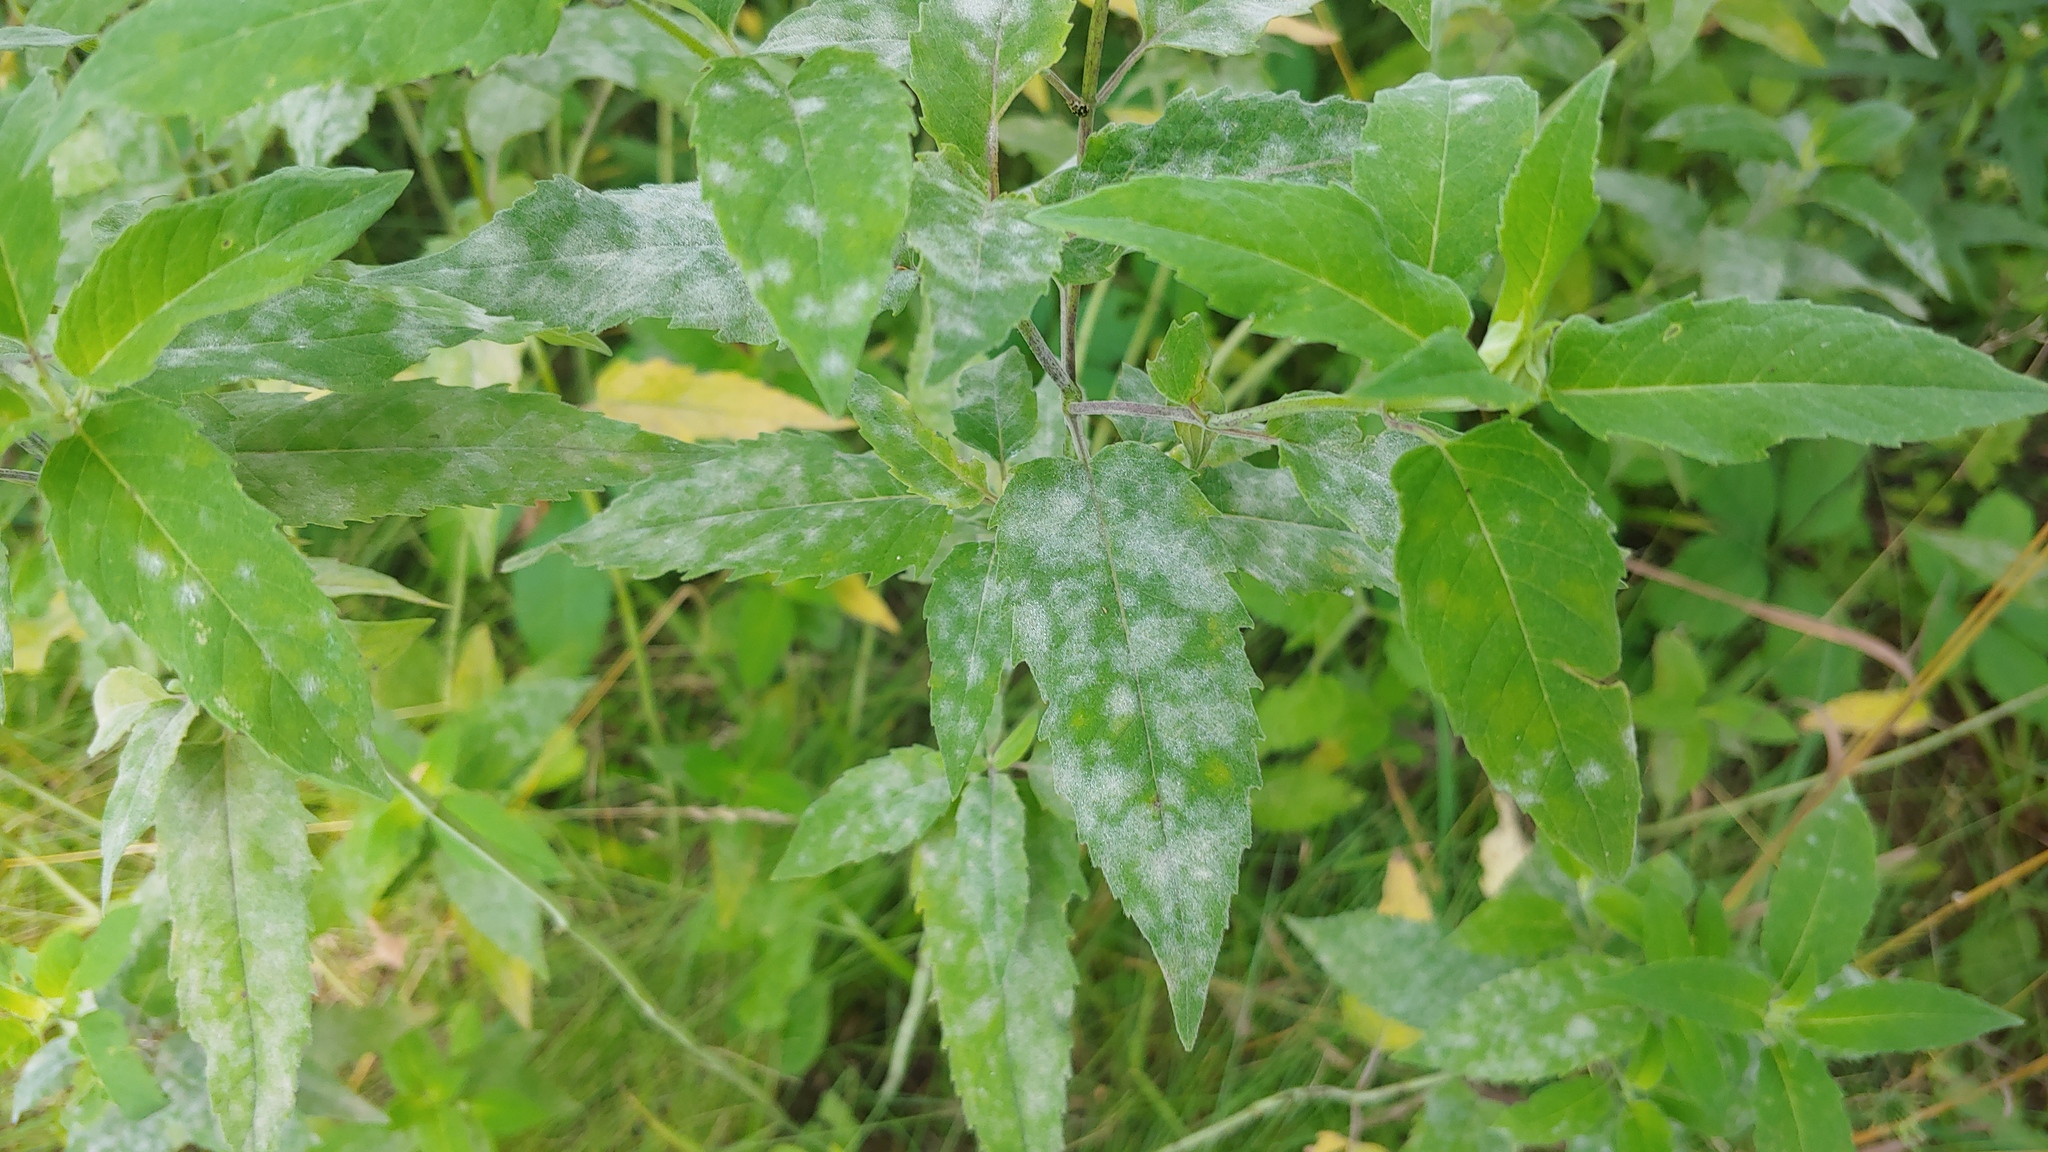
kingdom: Fungi
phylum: Ascomycota
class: Leotiomycetes
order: Helotiales
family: Erysiphaceae
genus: Golovinomyces
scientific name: Golovinomyces monardae
